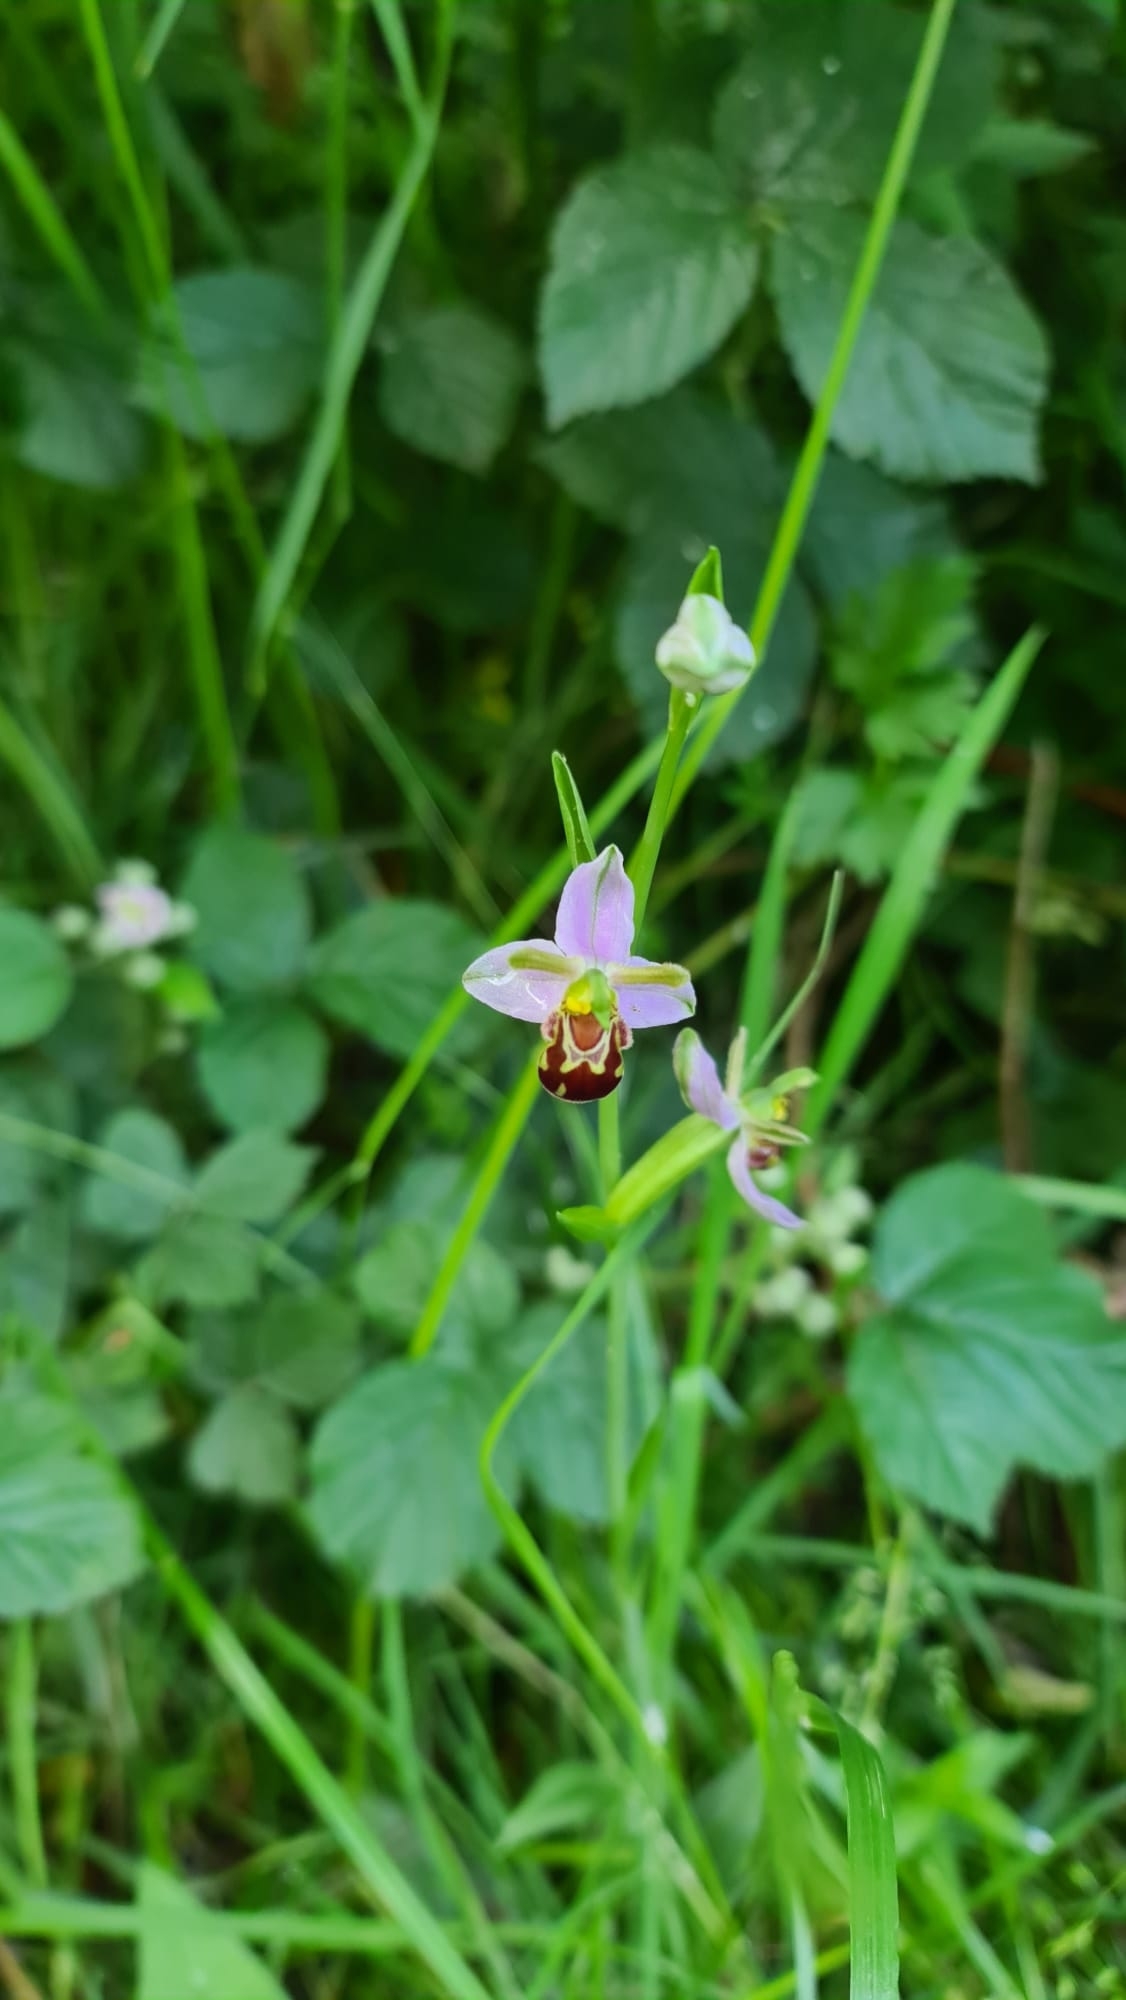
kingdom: Plantae
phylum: Tracheophyta
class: Liliopsida
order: Asparagales
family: Orchidaceae
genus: Ophrys
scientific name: Ophrys apifera
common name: Bee orchid
